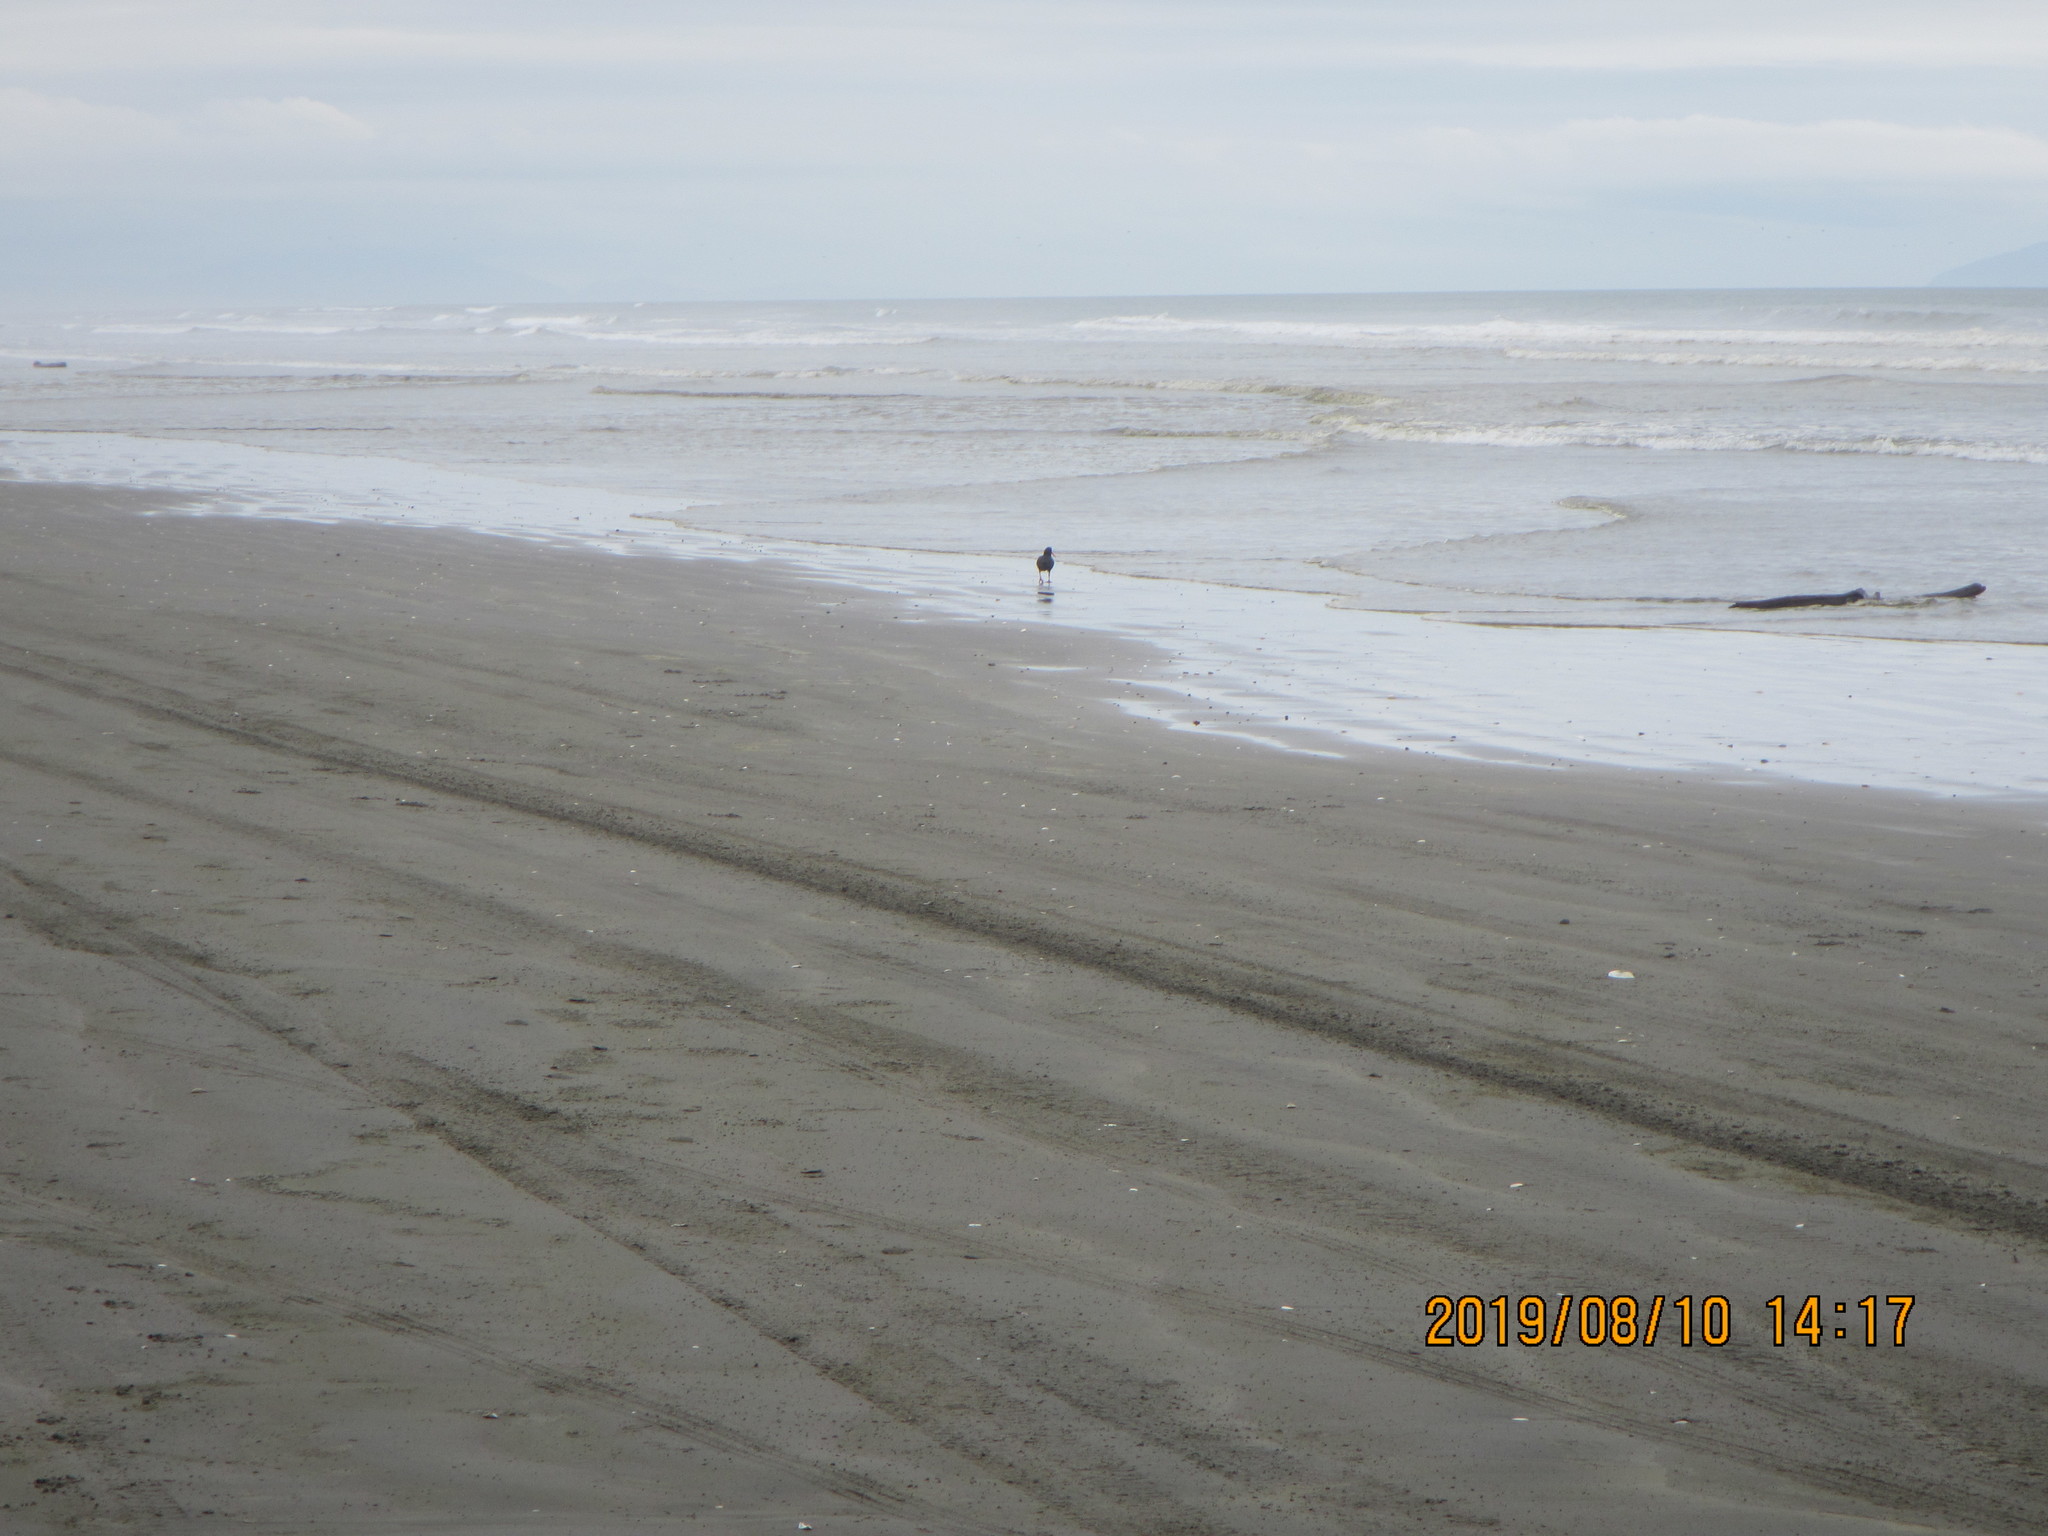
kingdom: Animalia
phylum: Chordata
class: Aves
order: Charadriiformes
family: Haematopodidae
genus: Haematopus
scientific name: Haematopus unicolor
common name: Variable oystercatcher
